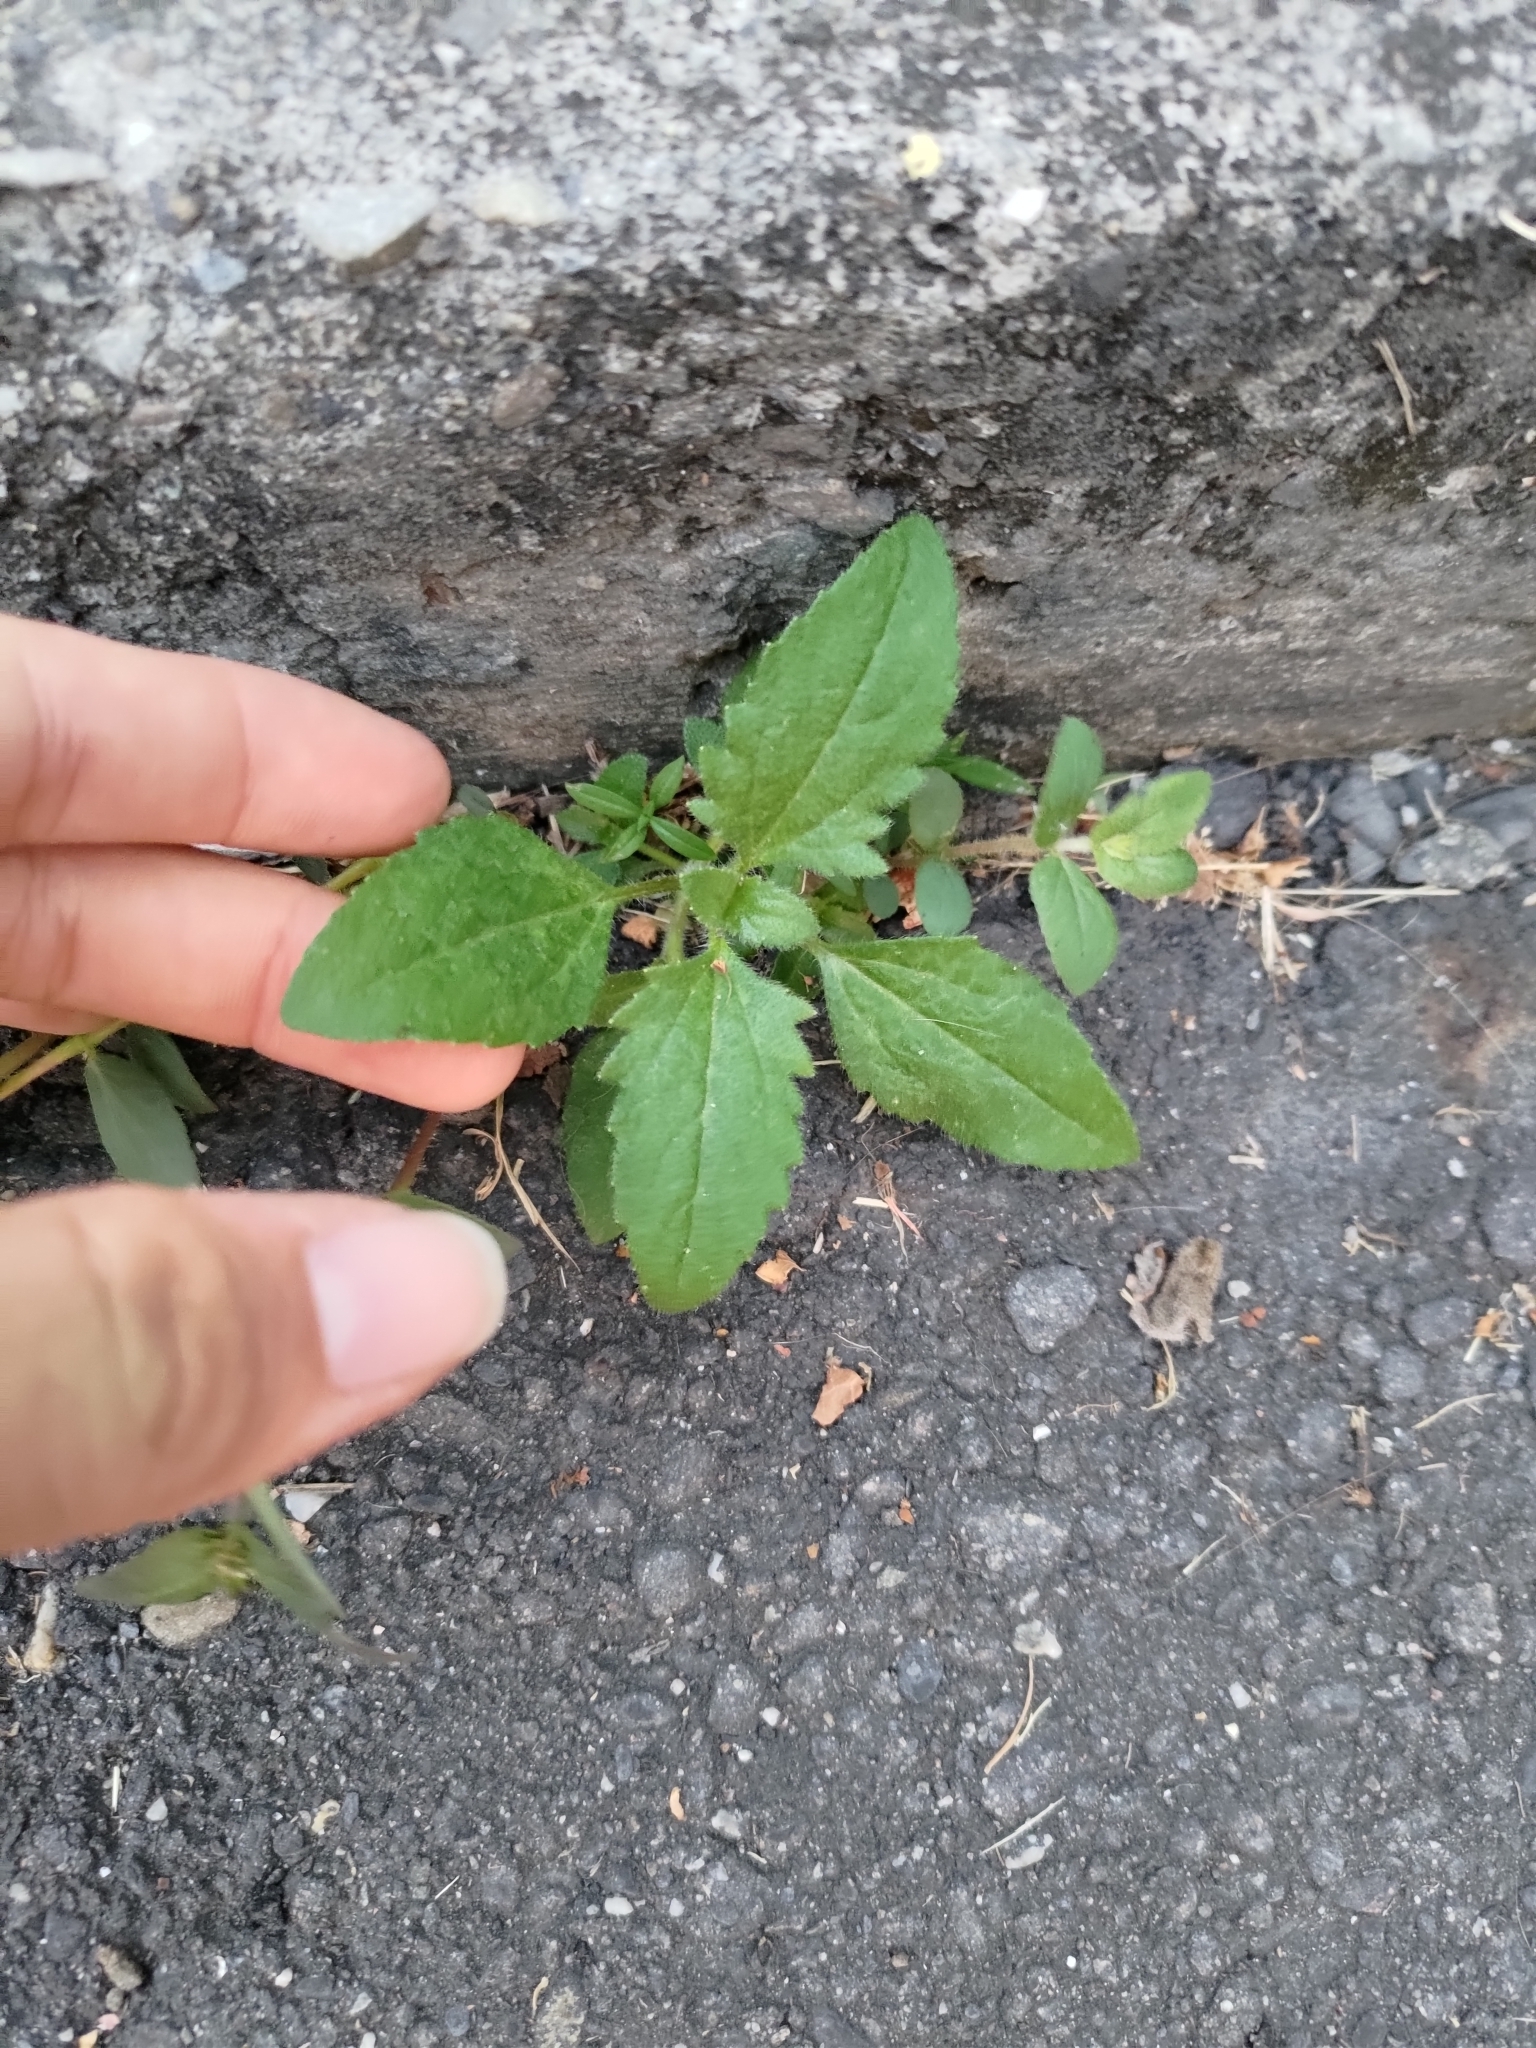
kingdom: Plantae
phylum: Tracheophyta
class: Magnoliopsida
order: Asterales
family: Asteraceae
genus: Tridax
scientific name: Tridax procumbens
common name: Coatbuttons
